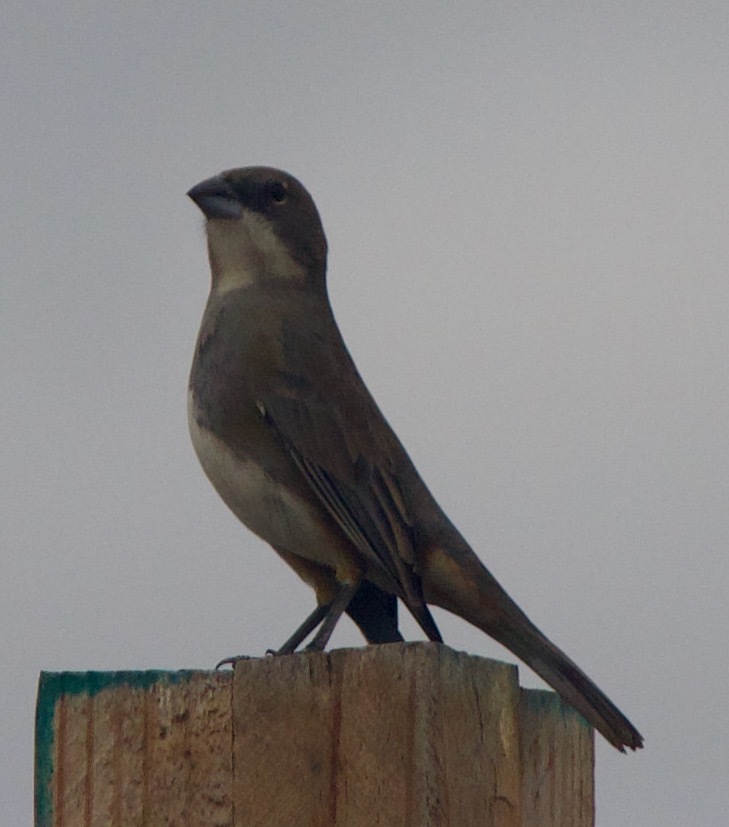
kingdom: Animalia
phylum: Chordata
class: Aves
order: Passeriformes
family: Thraupidae
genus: Diuca
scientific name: Diuca diuca
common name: Common diuca finch
